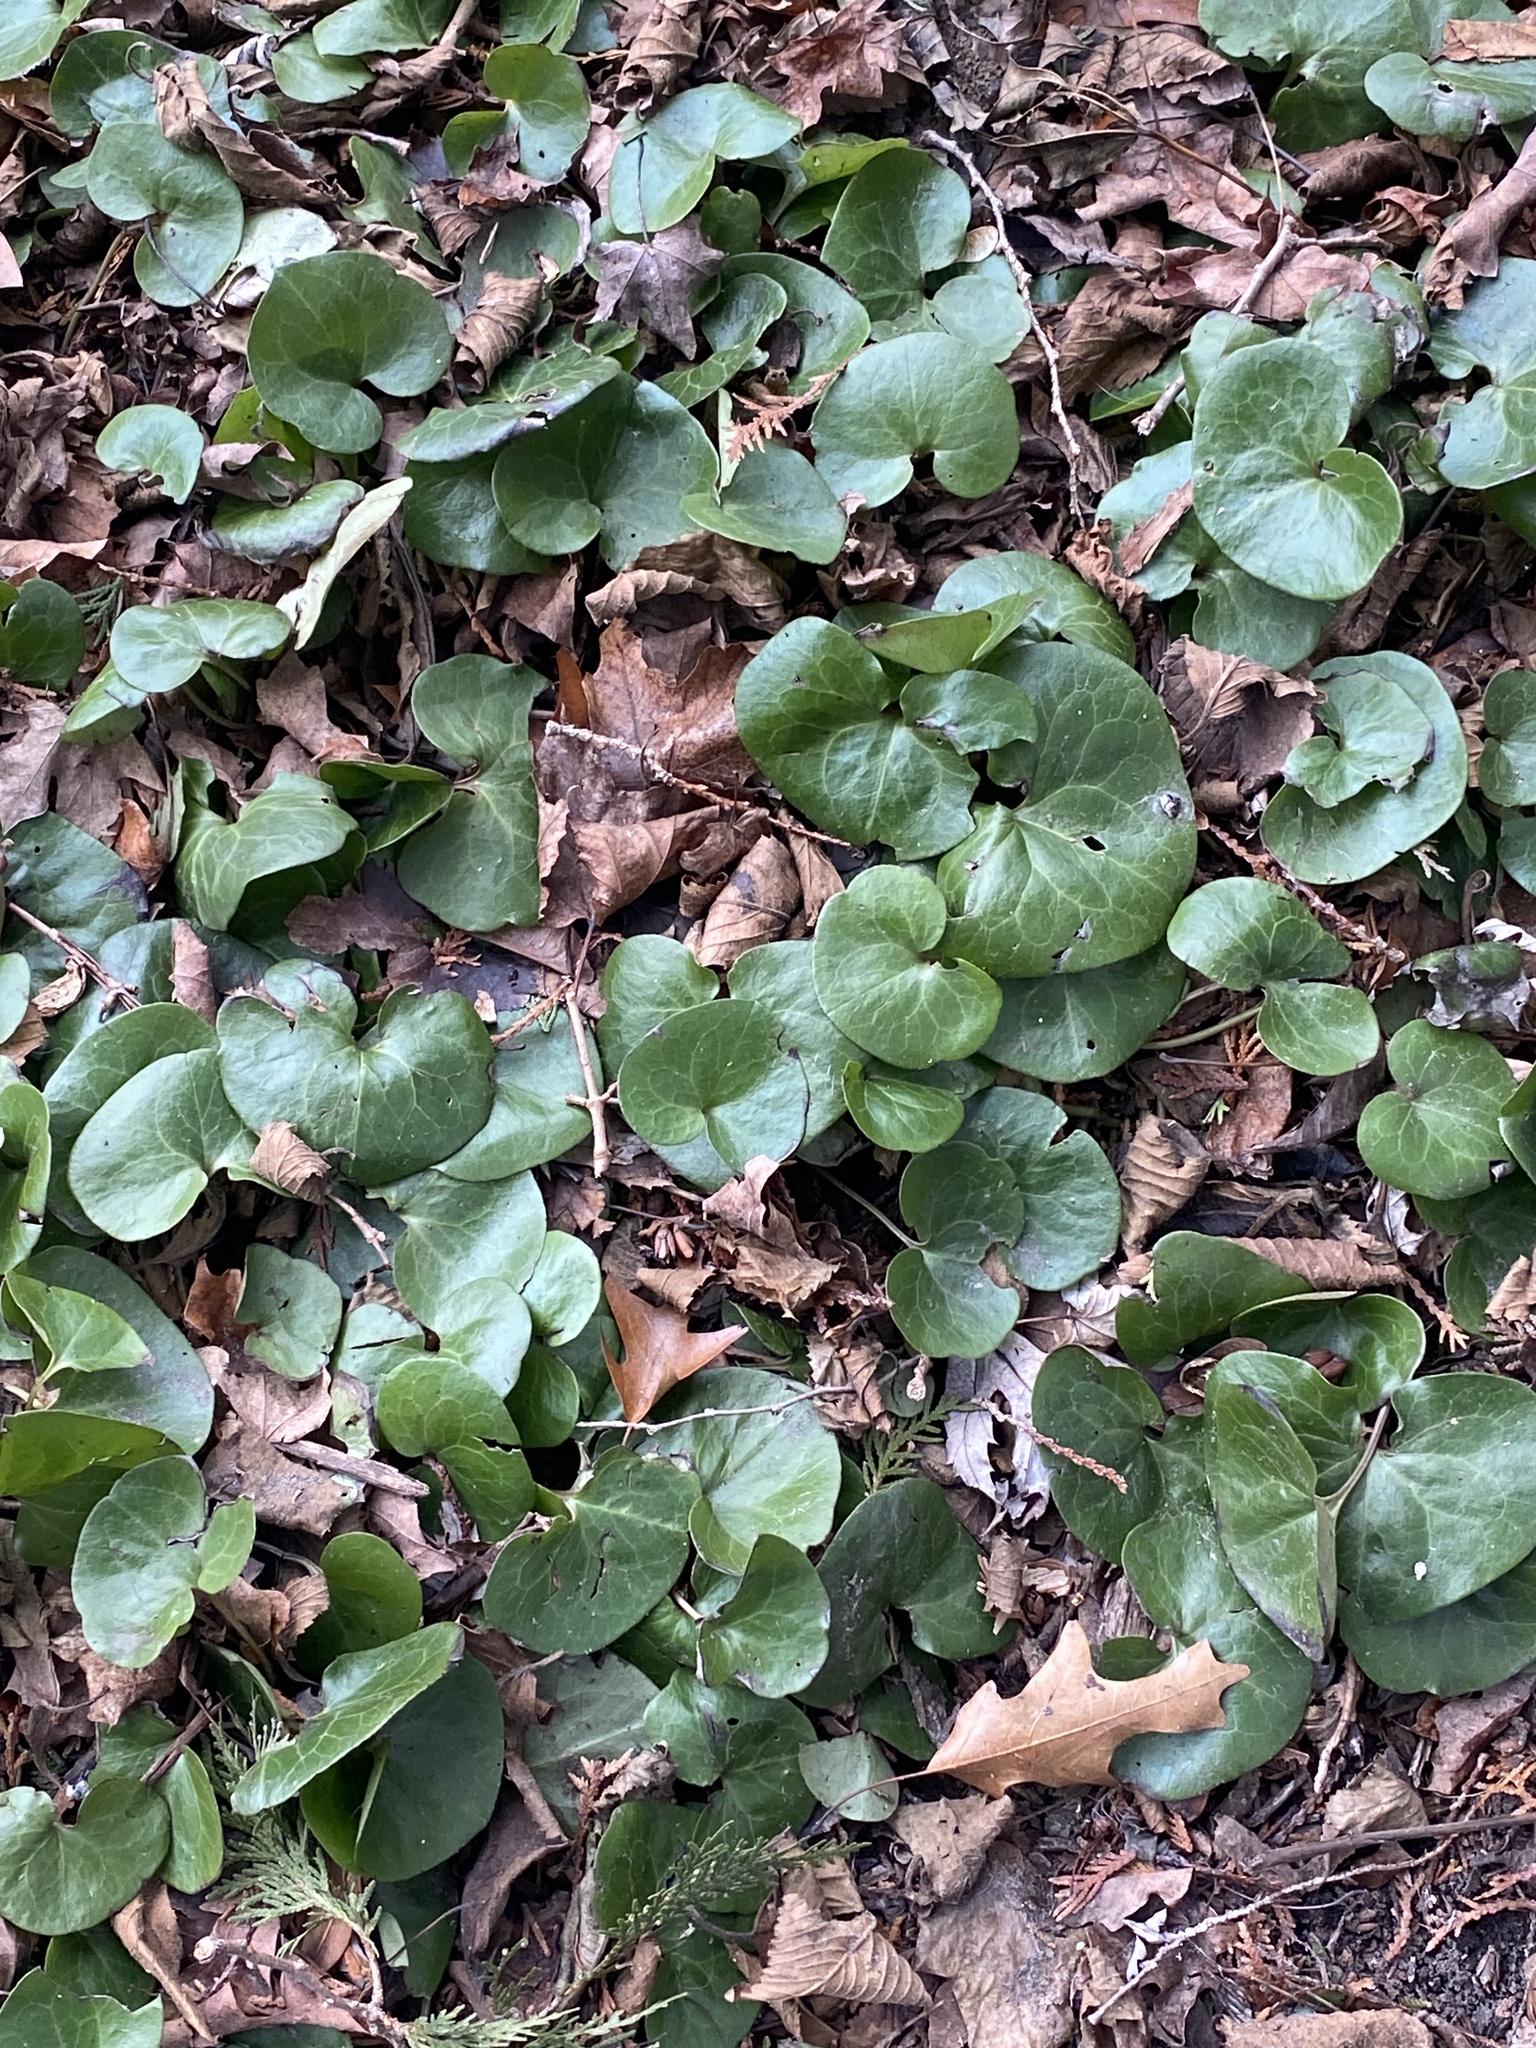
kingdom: Plantae
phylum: Tracheophyta
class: Magnoliopsida
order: Piperales
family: Aristolochiaceae
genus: Asarum
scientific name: Asarum europaeum
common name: Asarabacca
